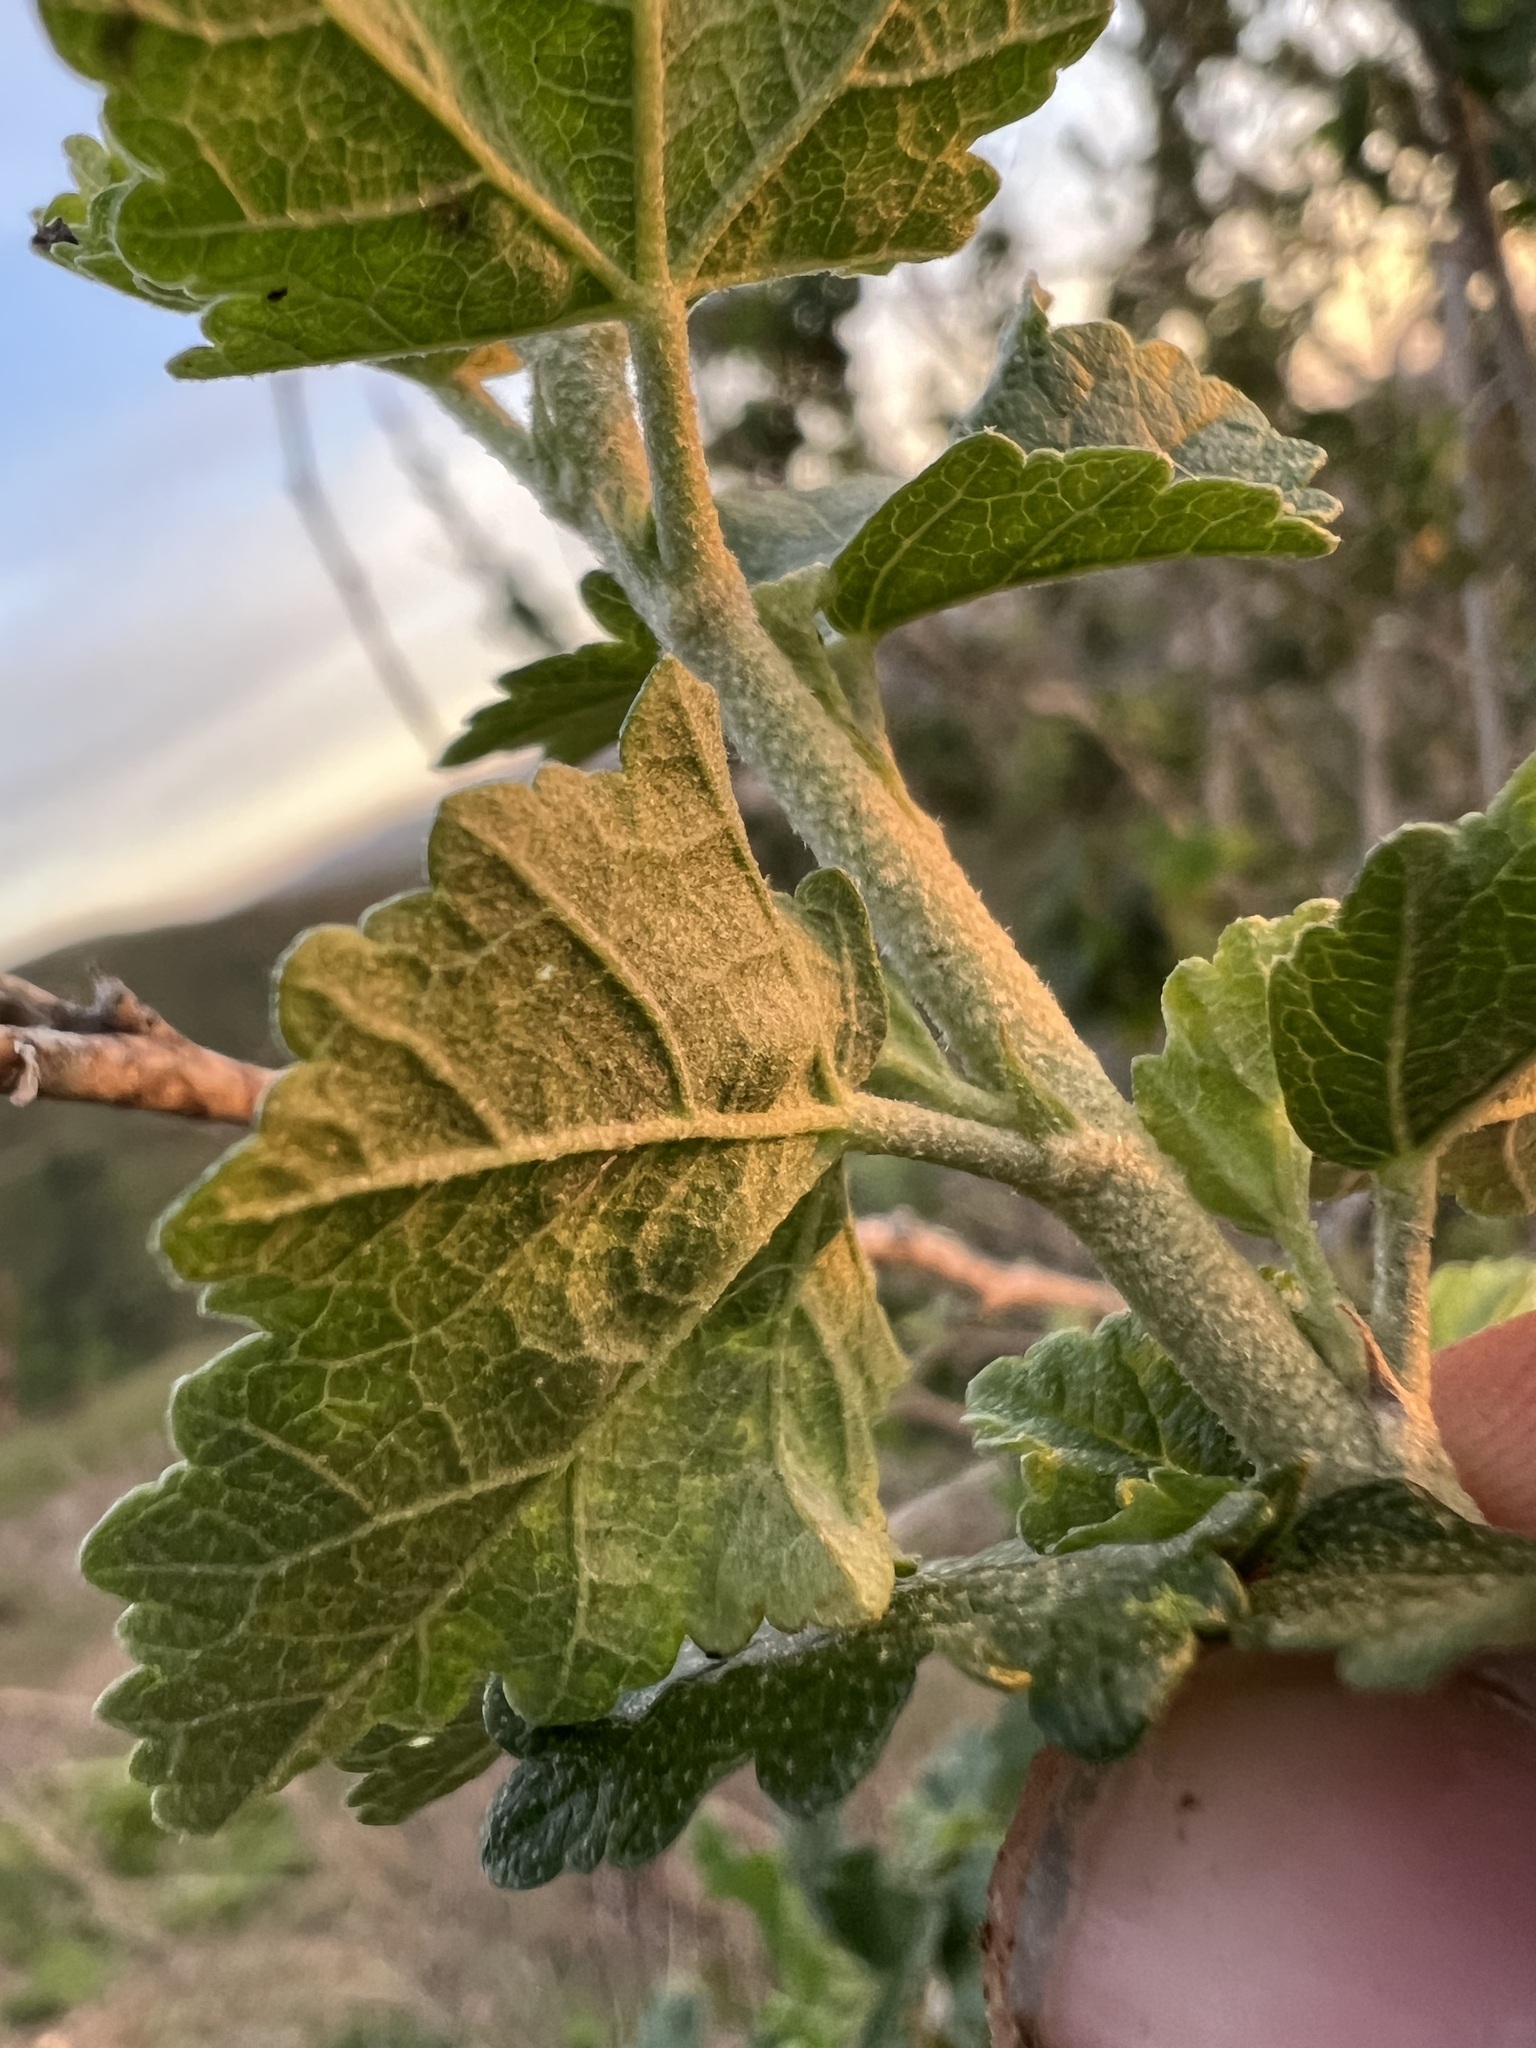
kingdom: Plantae
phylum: Tracheophyta
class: Magnoliopsida
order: Malvales
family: Malvaceae
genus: Malacothamnus
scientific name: Malacothamnus fasciculatus
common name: Sant cruz island bush-mallow
